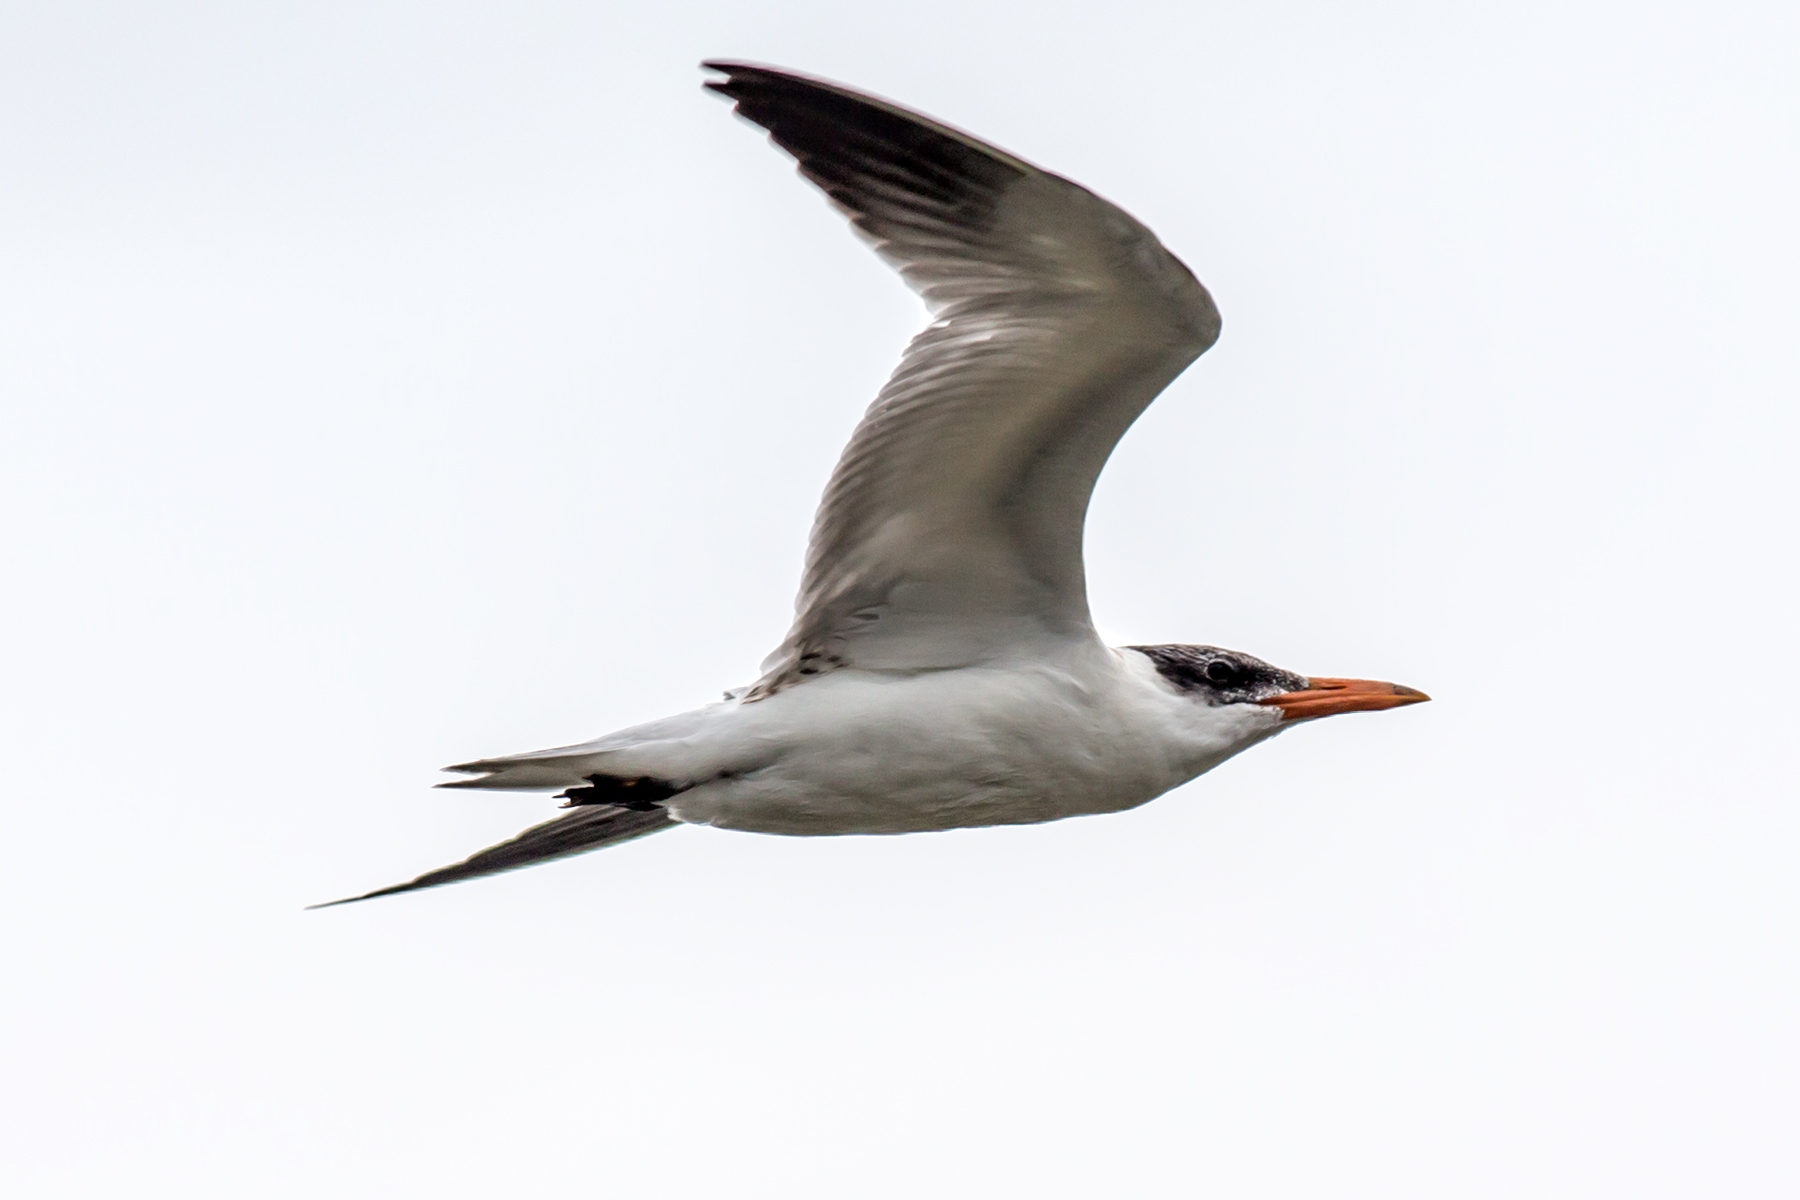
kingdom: Animalia
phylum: Chordata
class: Aves
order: Charadriiformes
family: Laridae
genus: Hydroprogne
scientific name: Hydroprogne caspia
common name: Caspian tern
